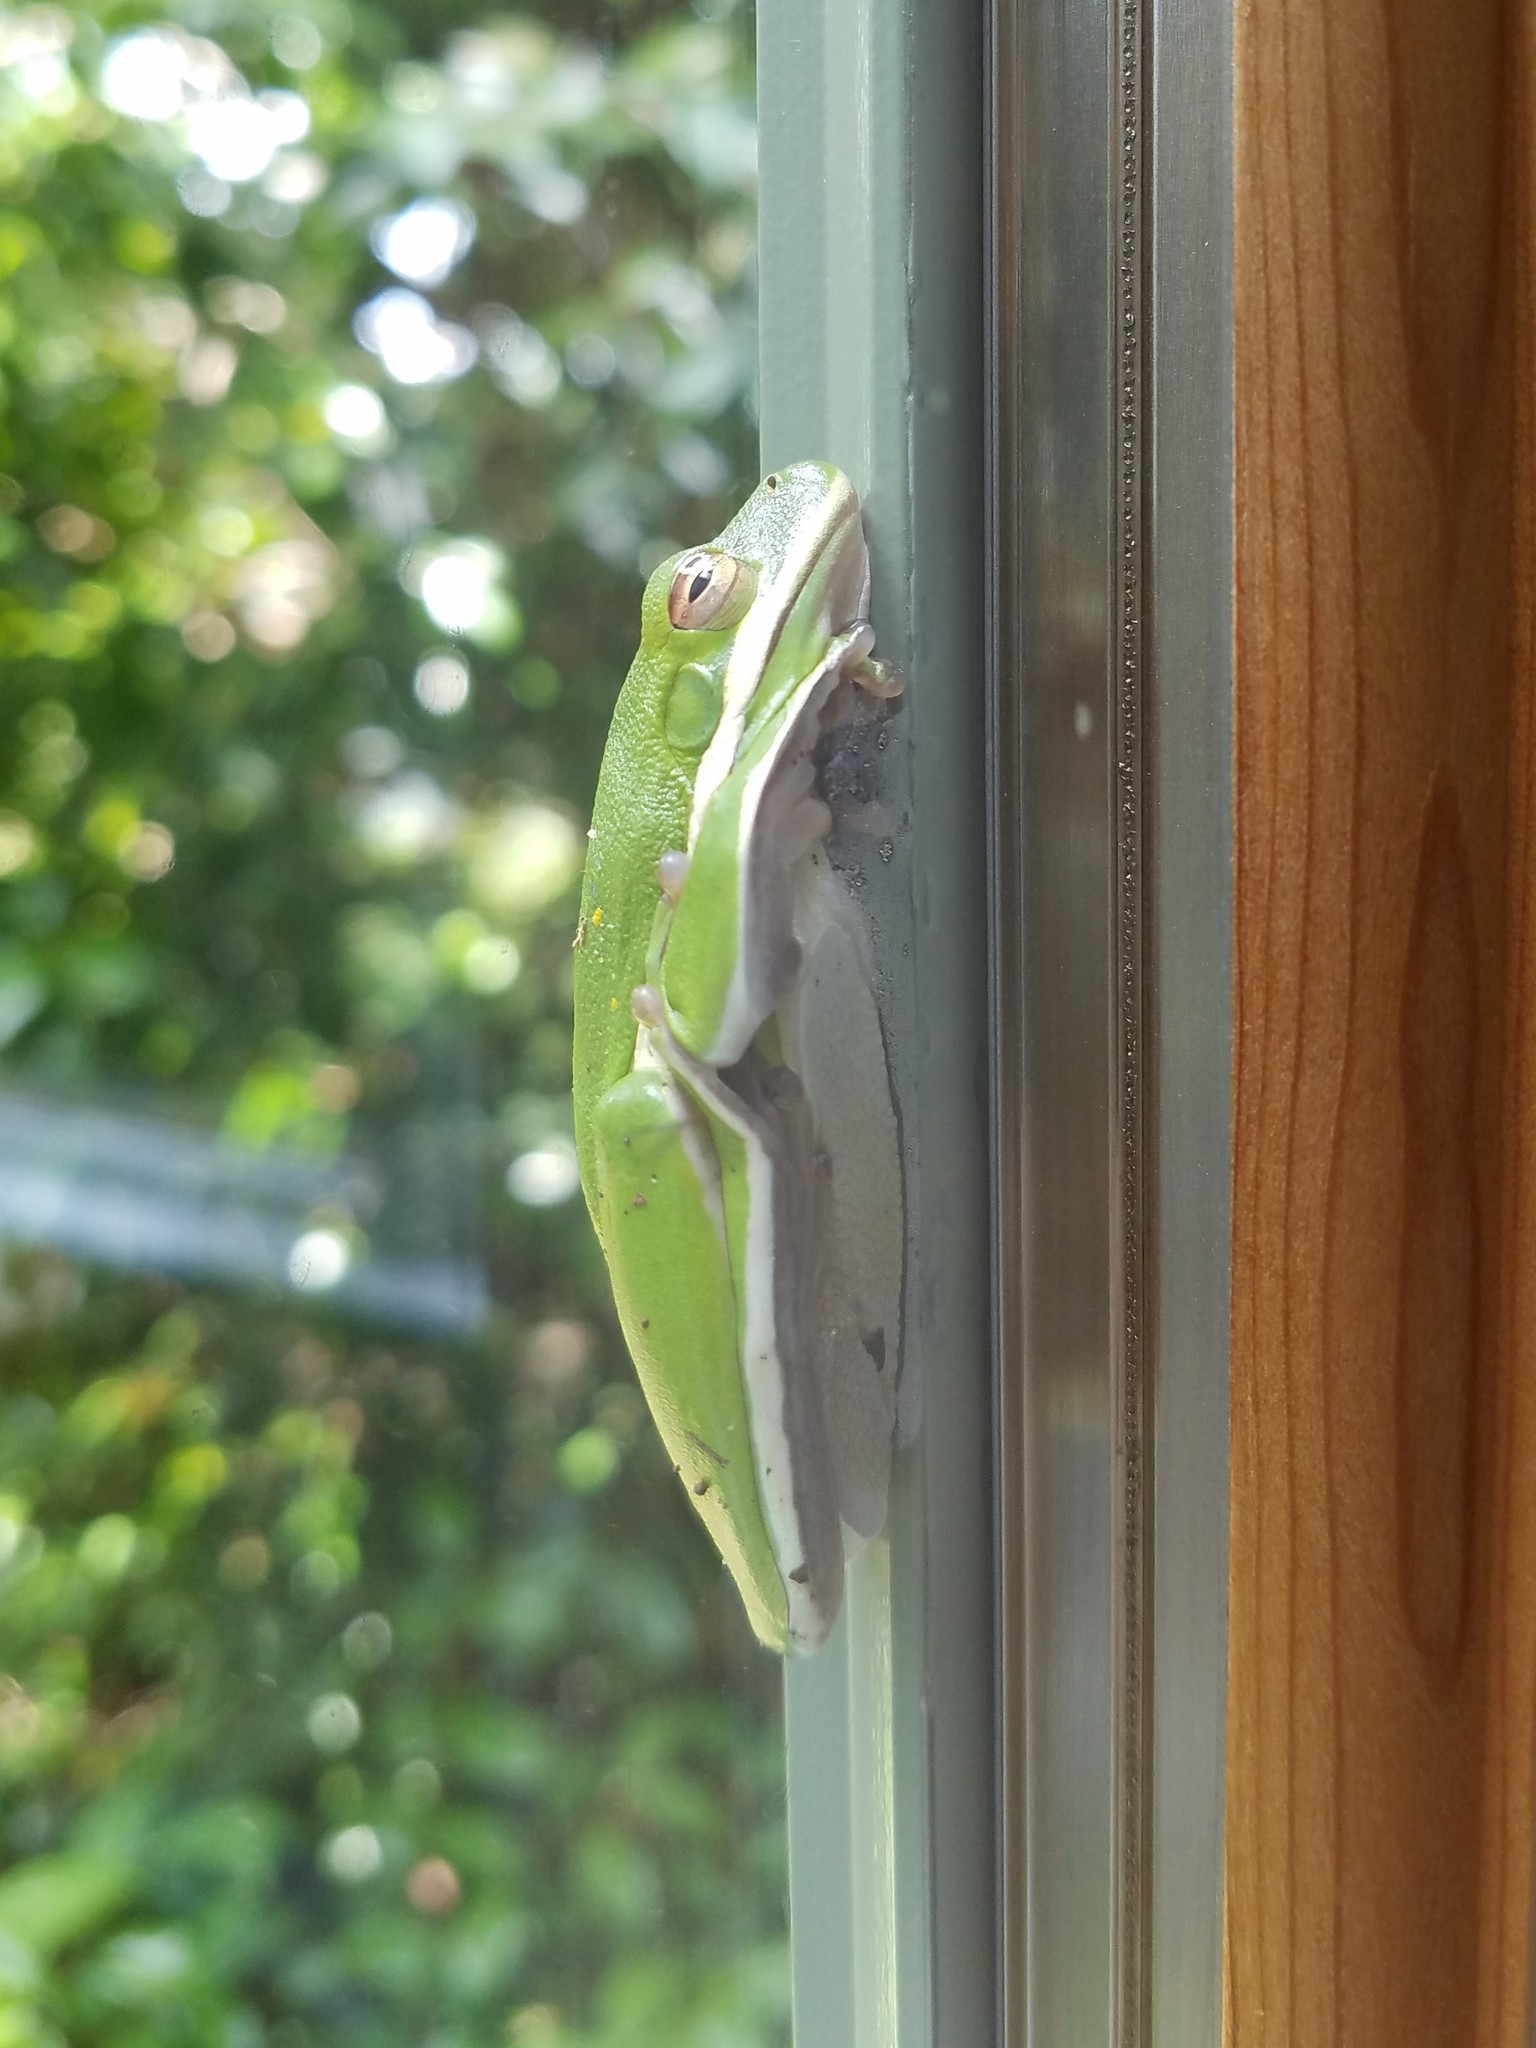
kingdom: Animalia
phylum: Chordata
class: Amphibia
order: Anura
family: Hylidae
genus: Dryophytes
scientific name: Dryophytes cinereus
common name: Green treefrog
